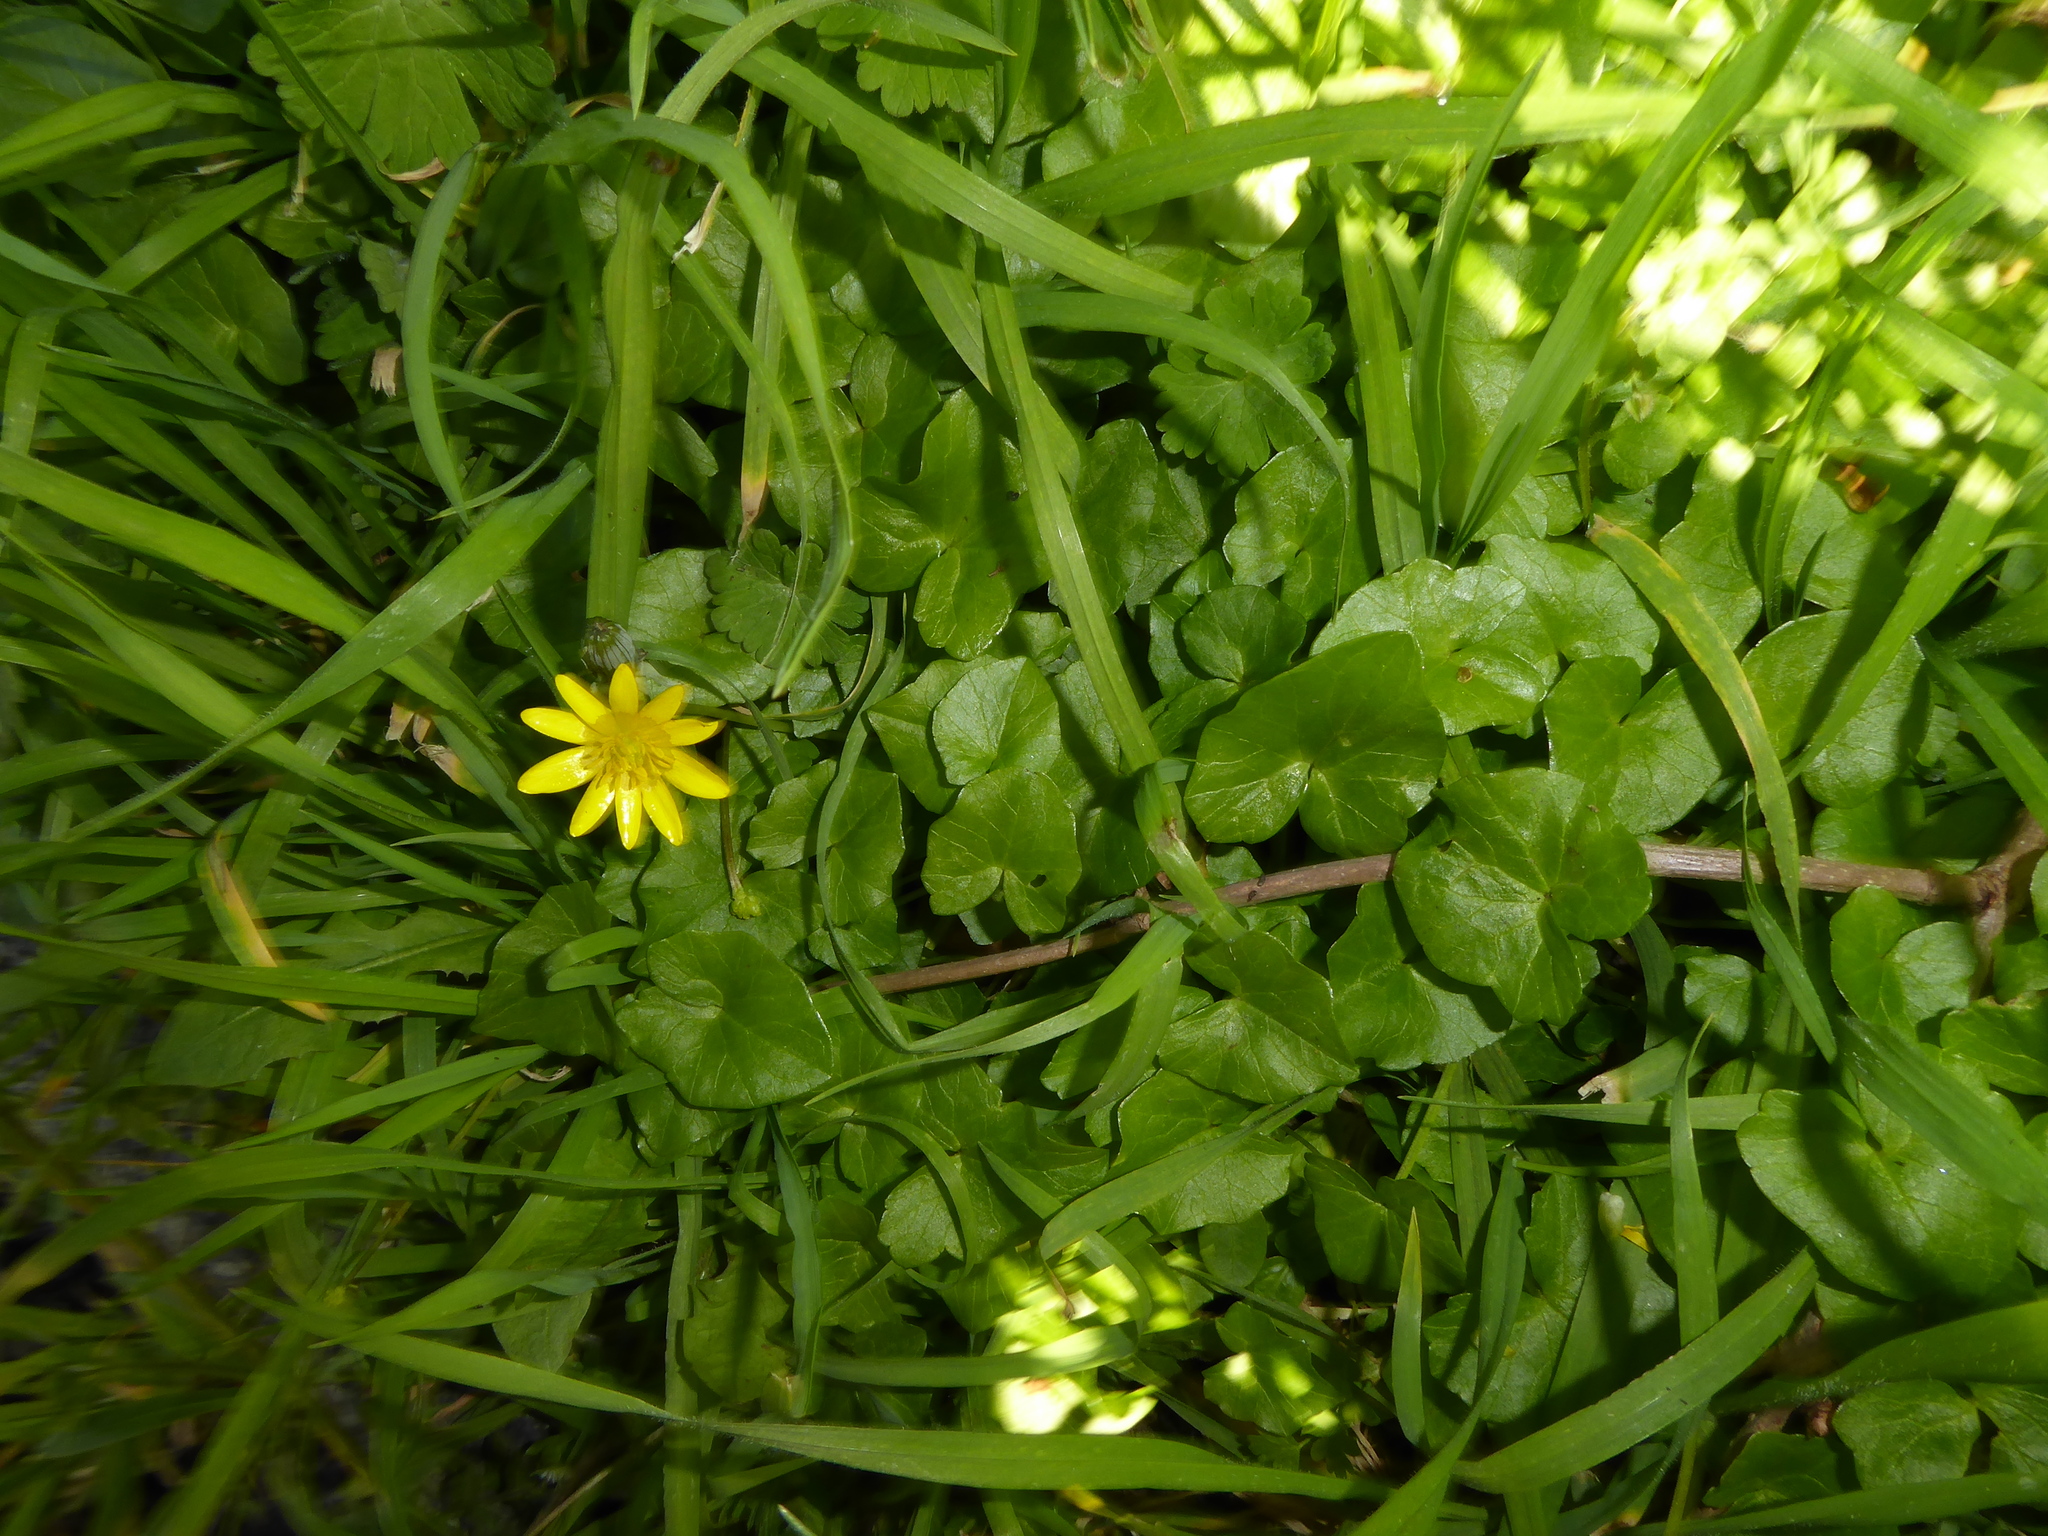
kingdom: Plantae
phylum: Tracheophyta
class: Magnoliopsida
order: Ranunculales
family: Ranunculaceae
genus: Ficaria
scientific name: Ficaria verna
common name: Lesser celandine
